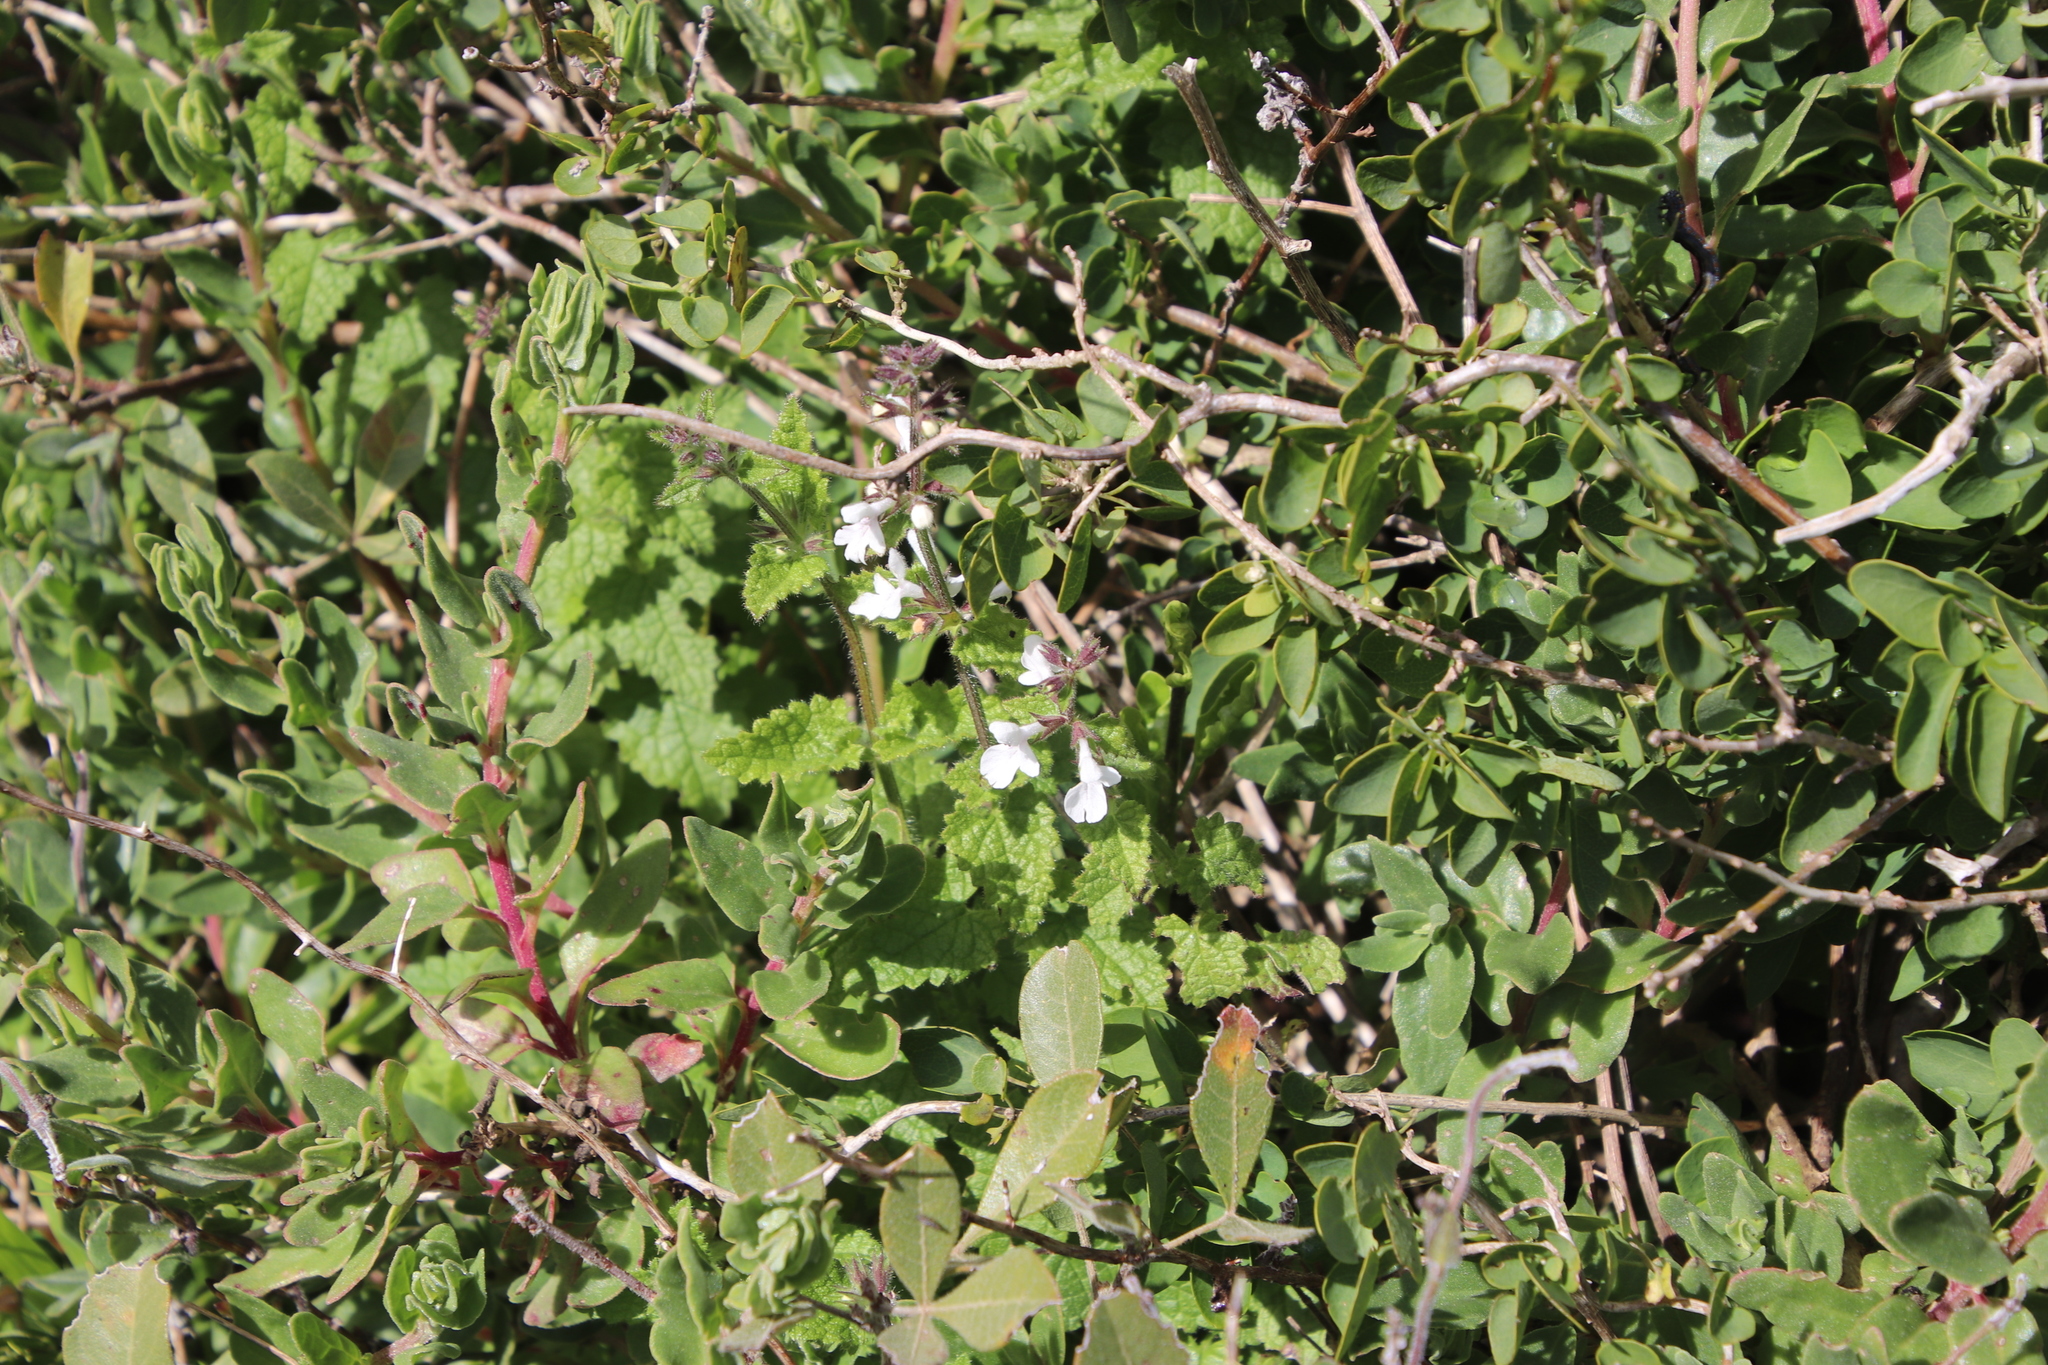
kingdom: Plantae
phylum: Tracheophyta
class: Magnoliopsida
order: Lamiales
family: Lamiaceae
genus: Stachys
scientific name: Stachys aethiopica
